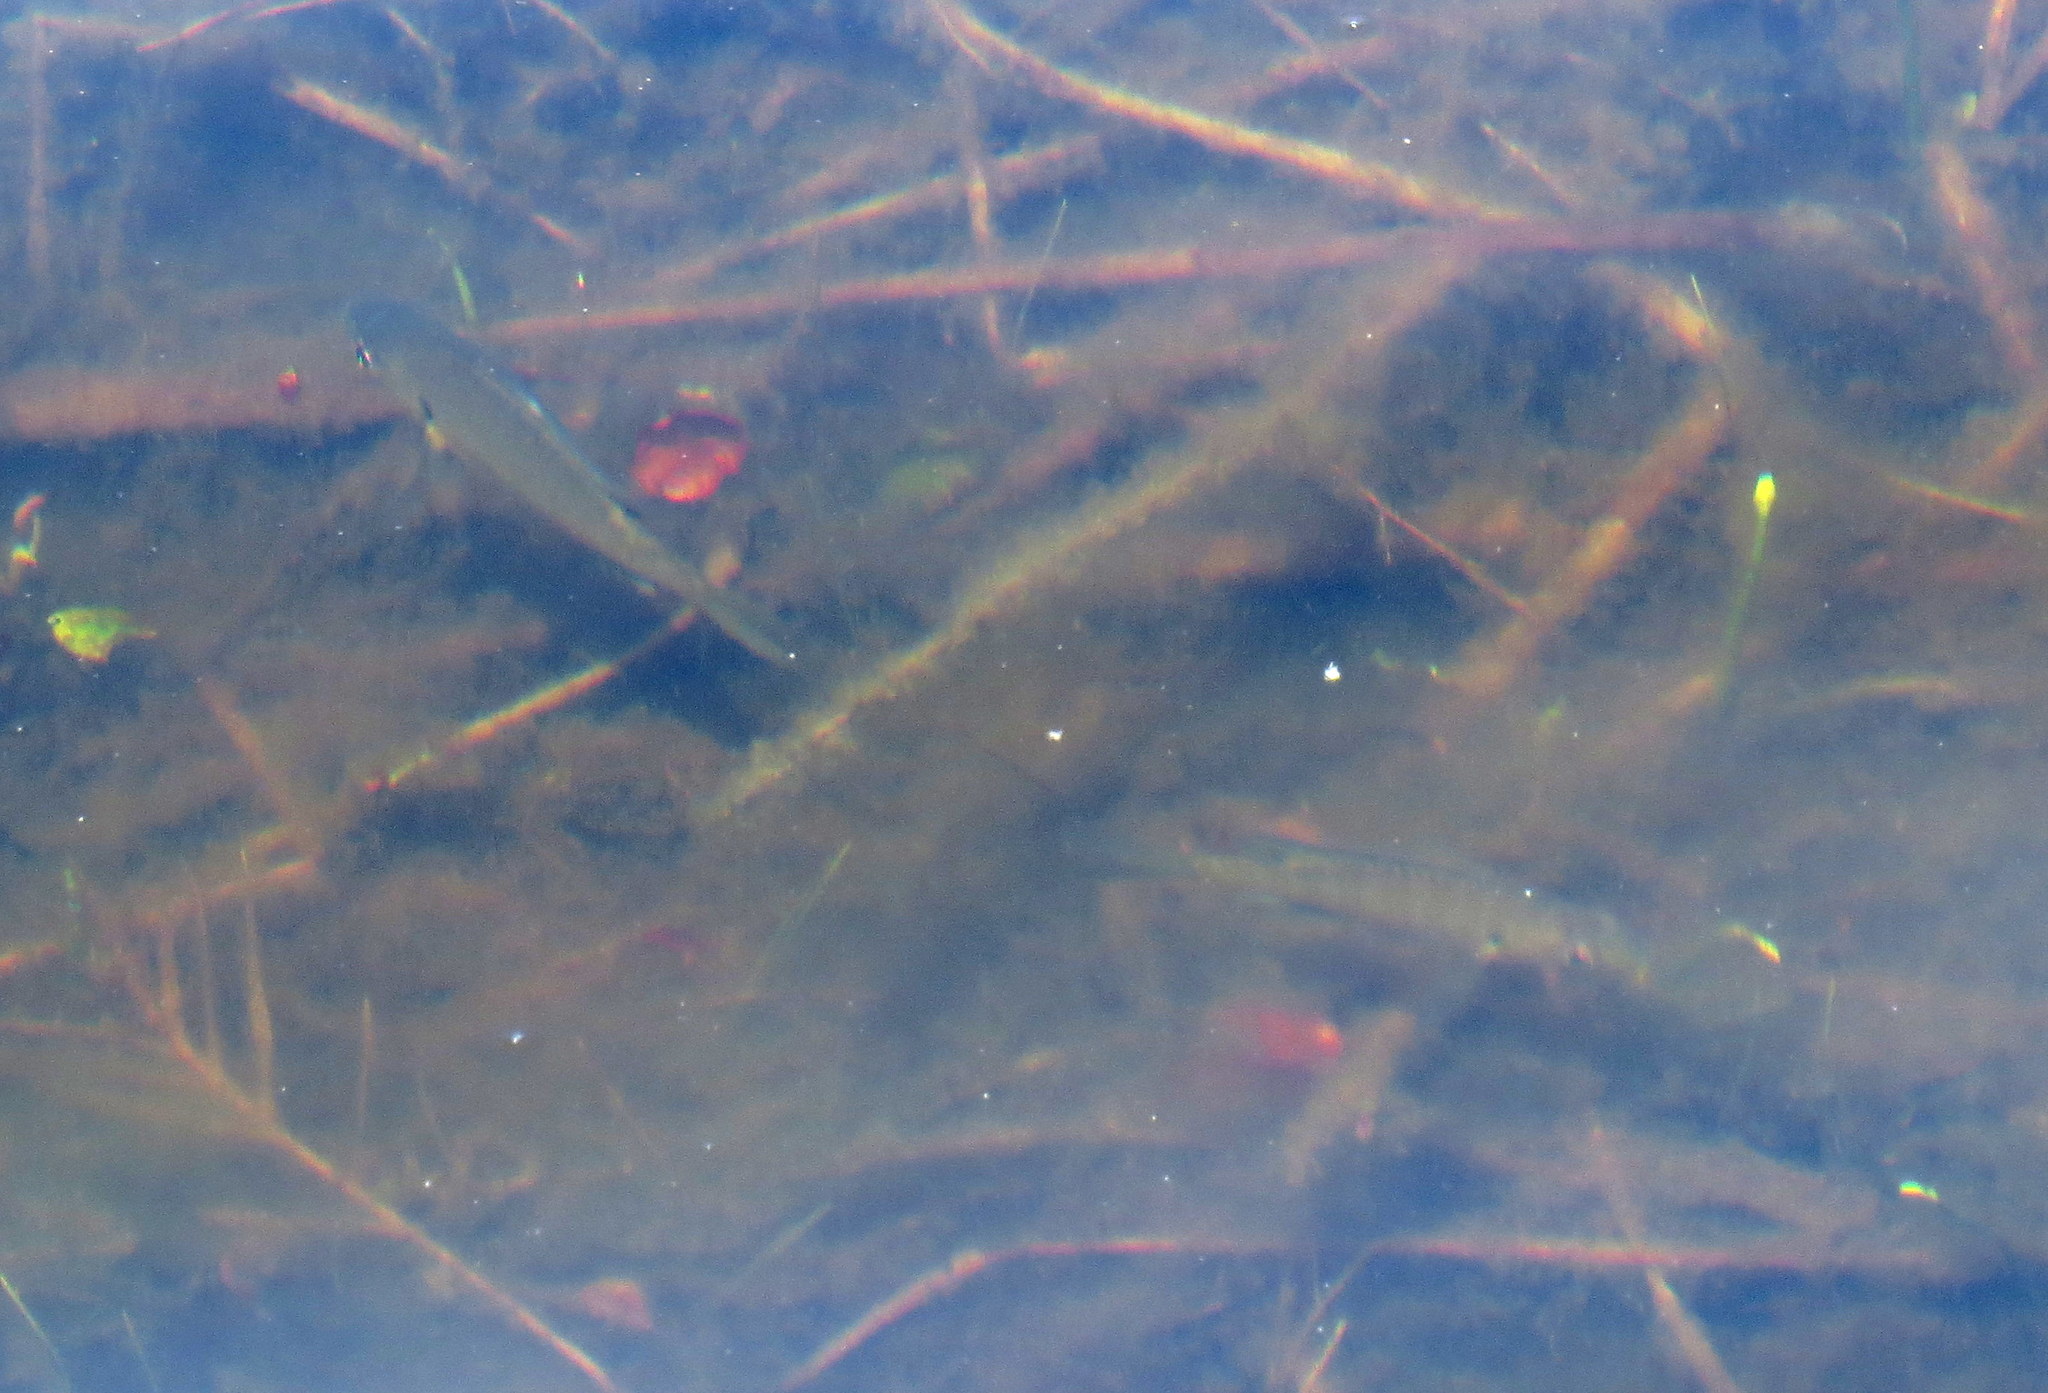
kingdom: Animalia
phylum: Chordata
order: Perciformes
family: Centrarchidae
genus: Lepomis
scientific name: Lepomis macrochirus
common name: Bluegill
